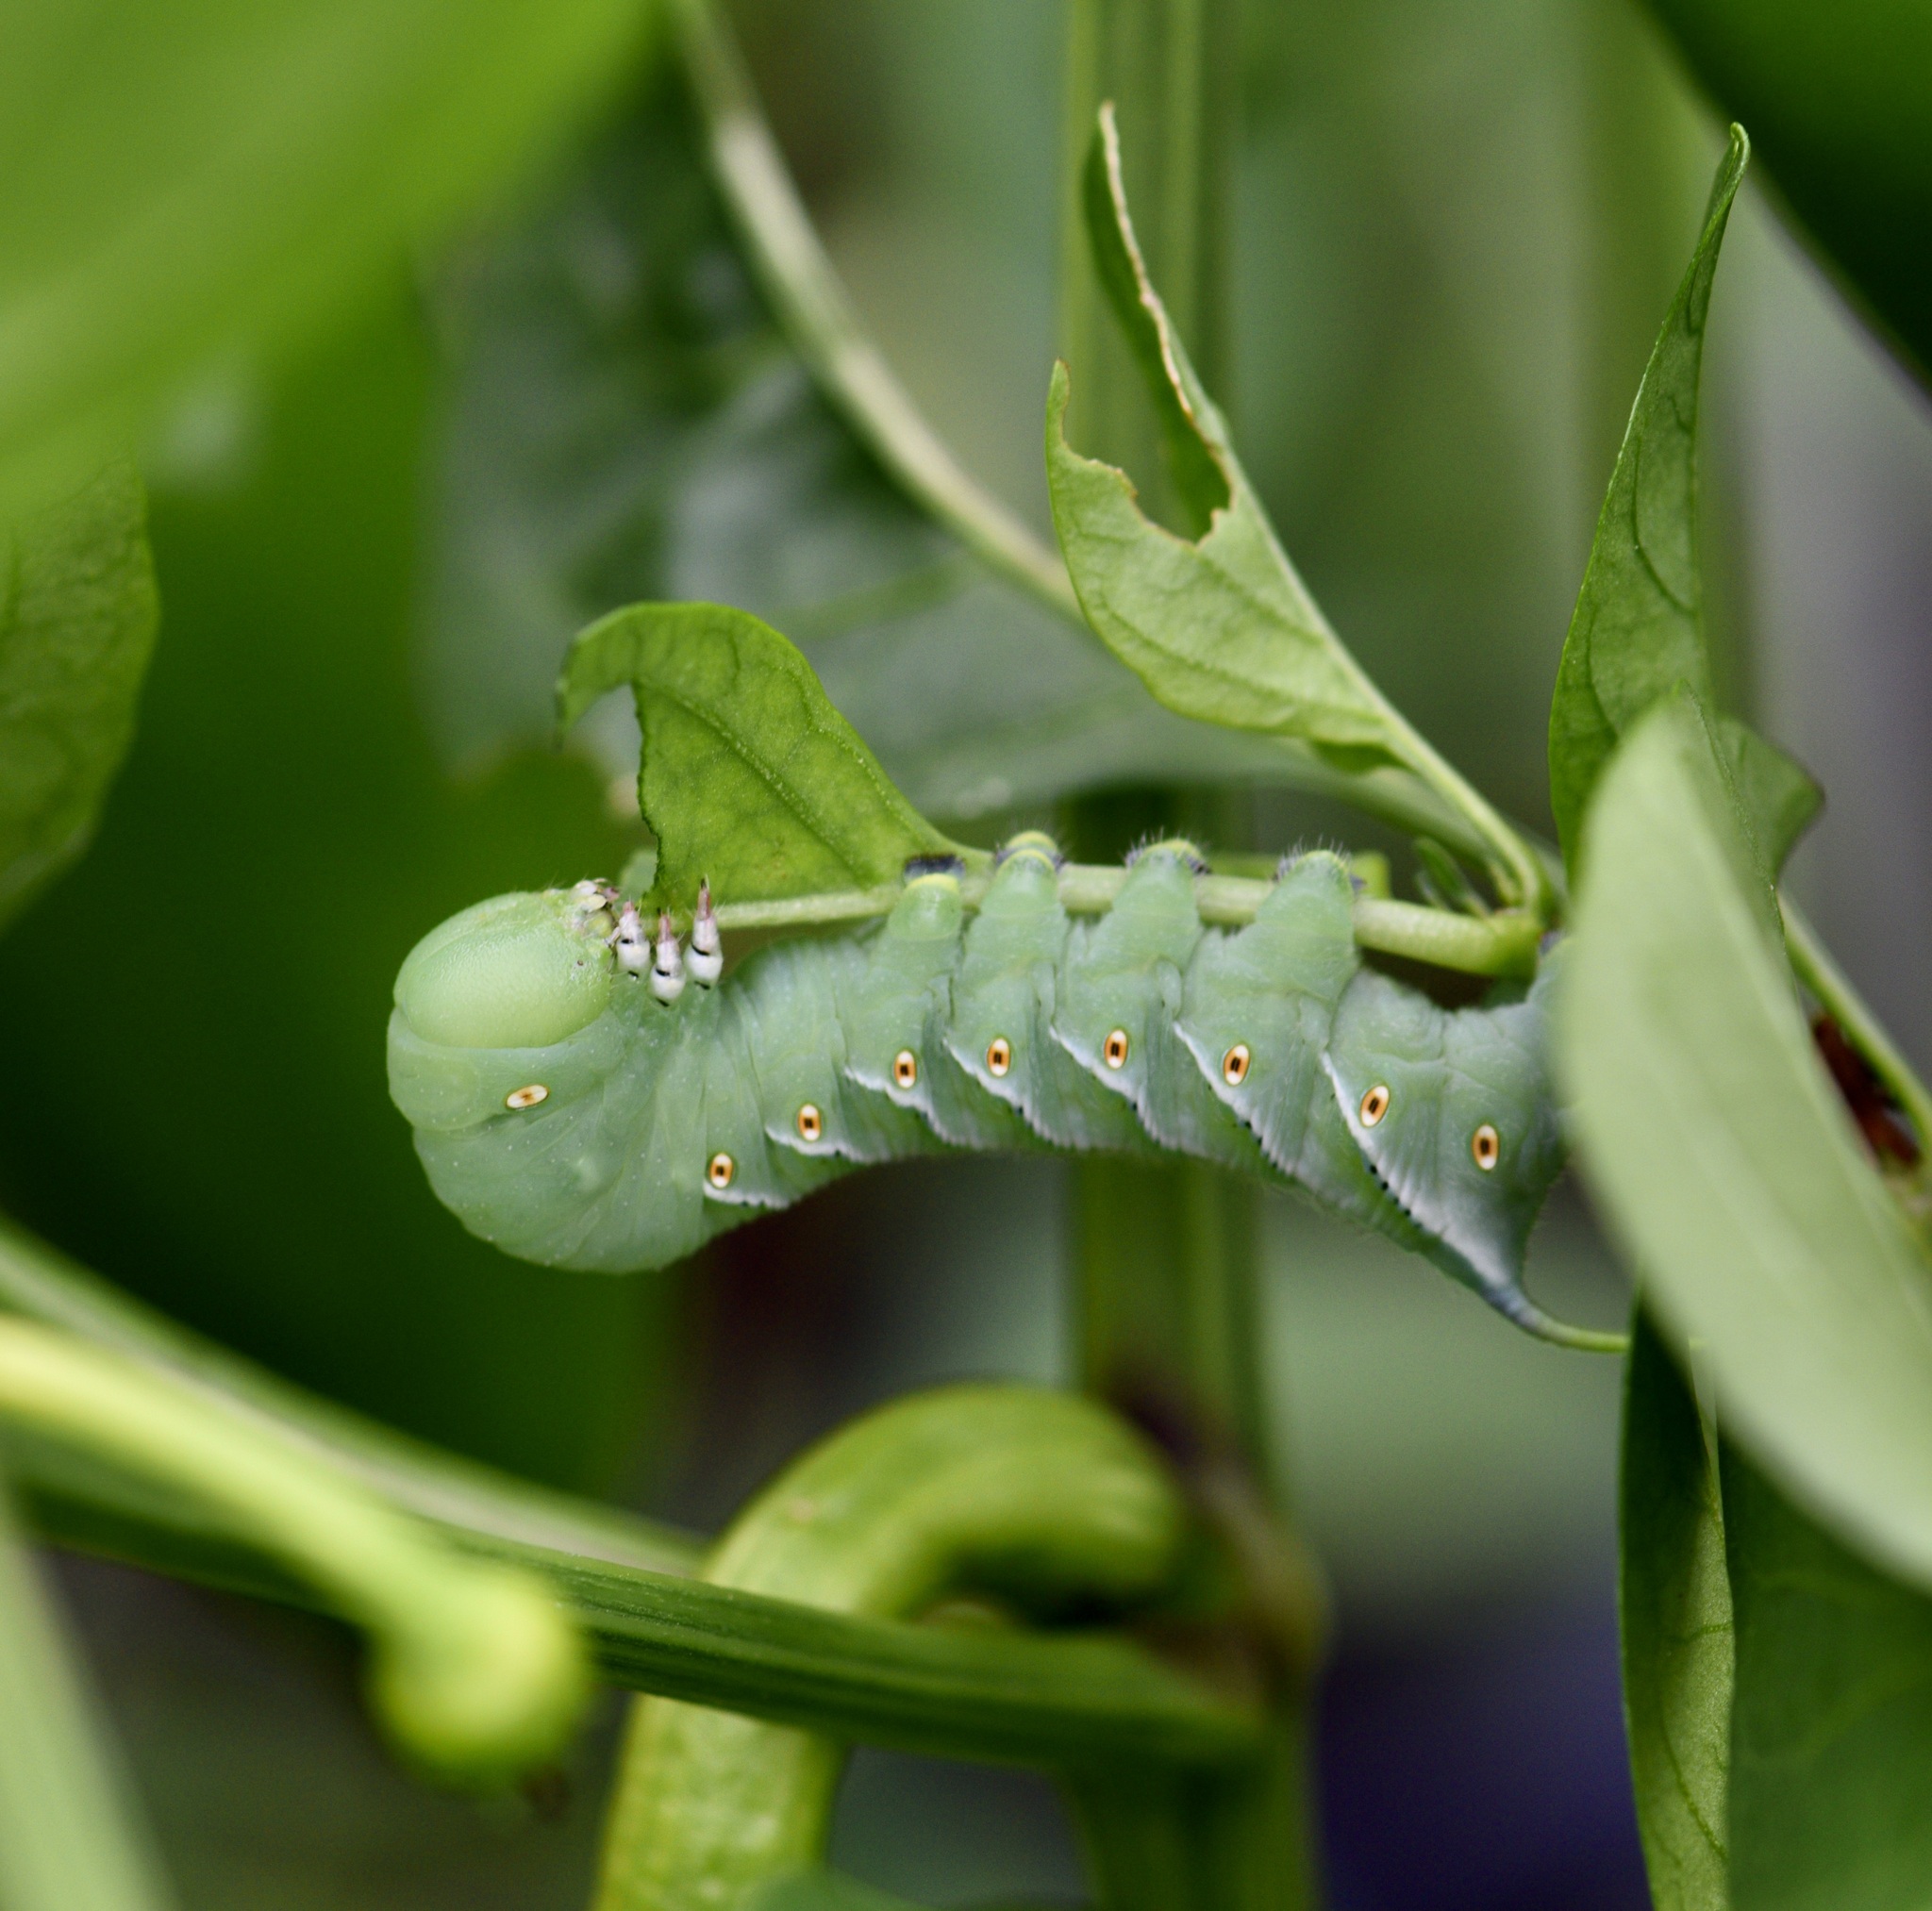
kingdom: Animalia
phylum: Arthropoda
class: Insecta
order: Lepidoptera
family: Sphingidae
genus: Manduca
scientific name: Manduca sexta
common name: Carolina sphinx
